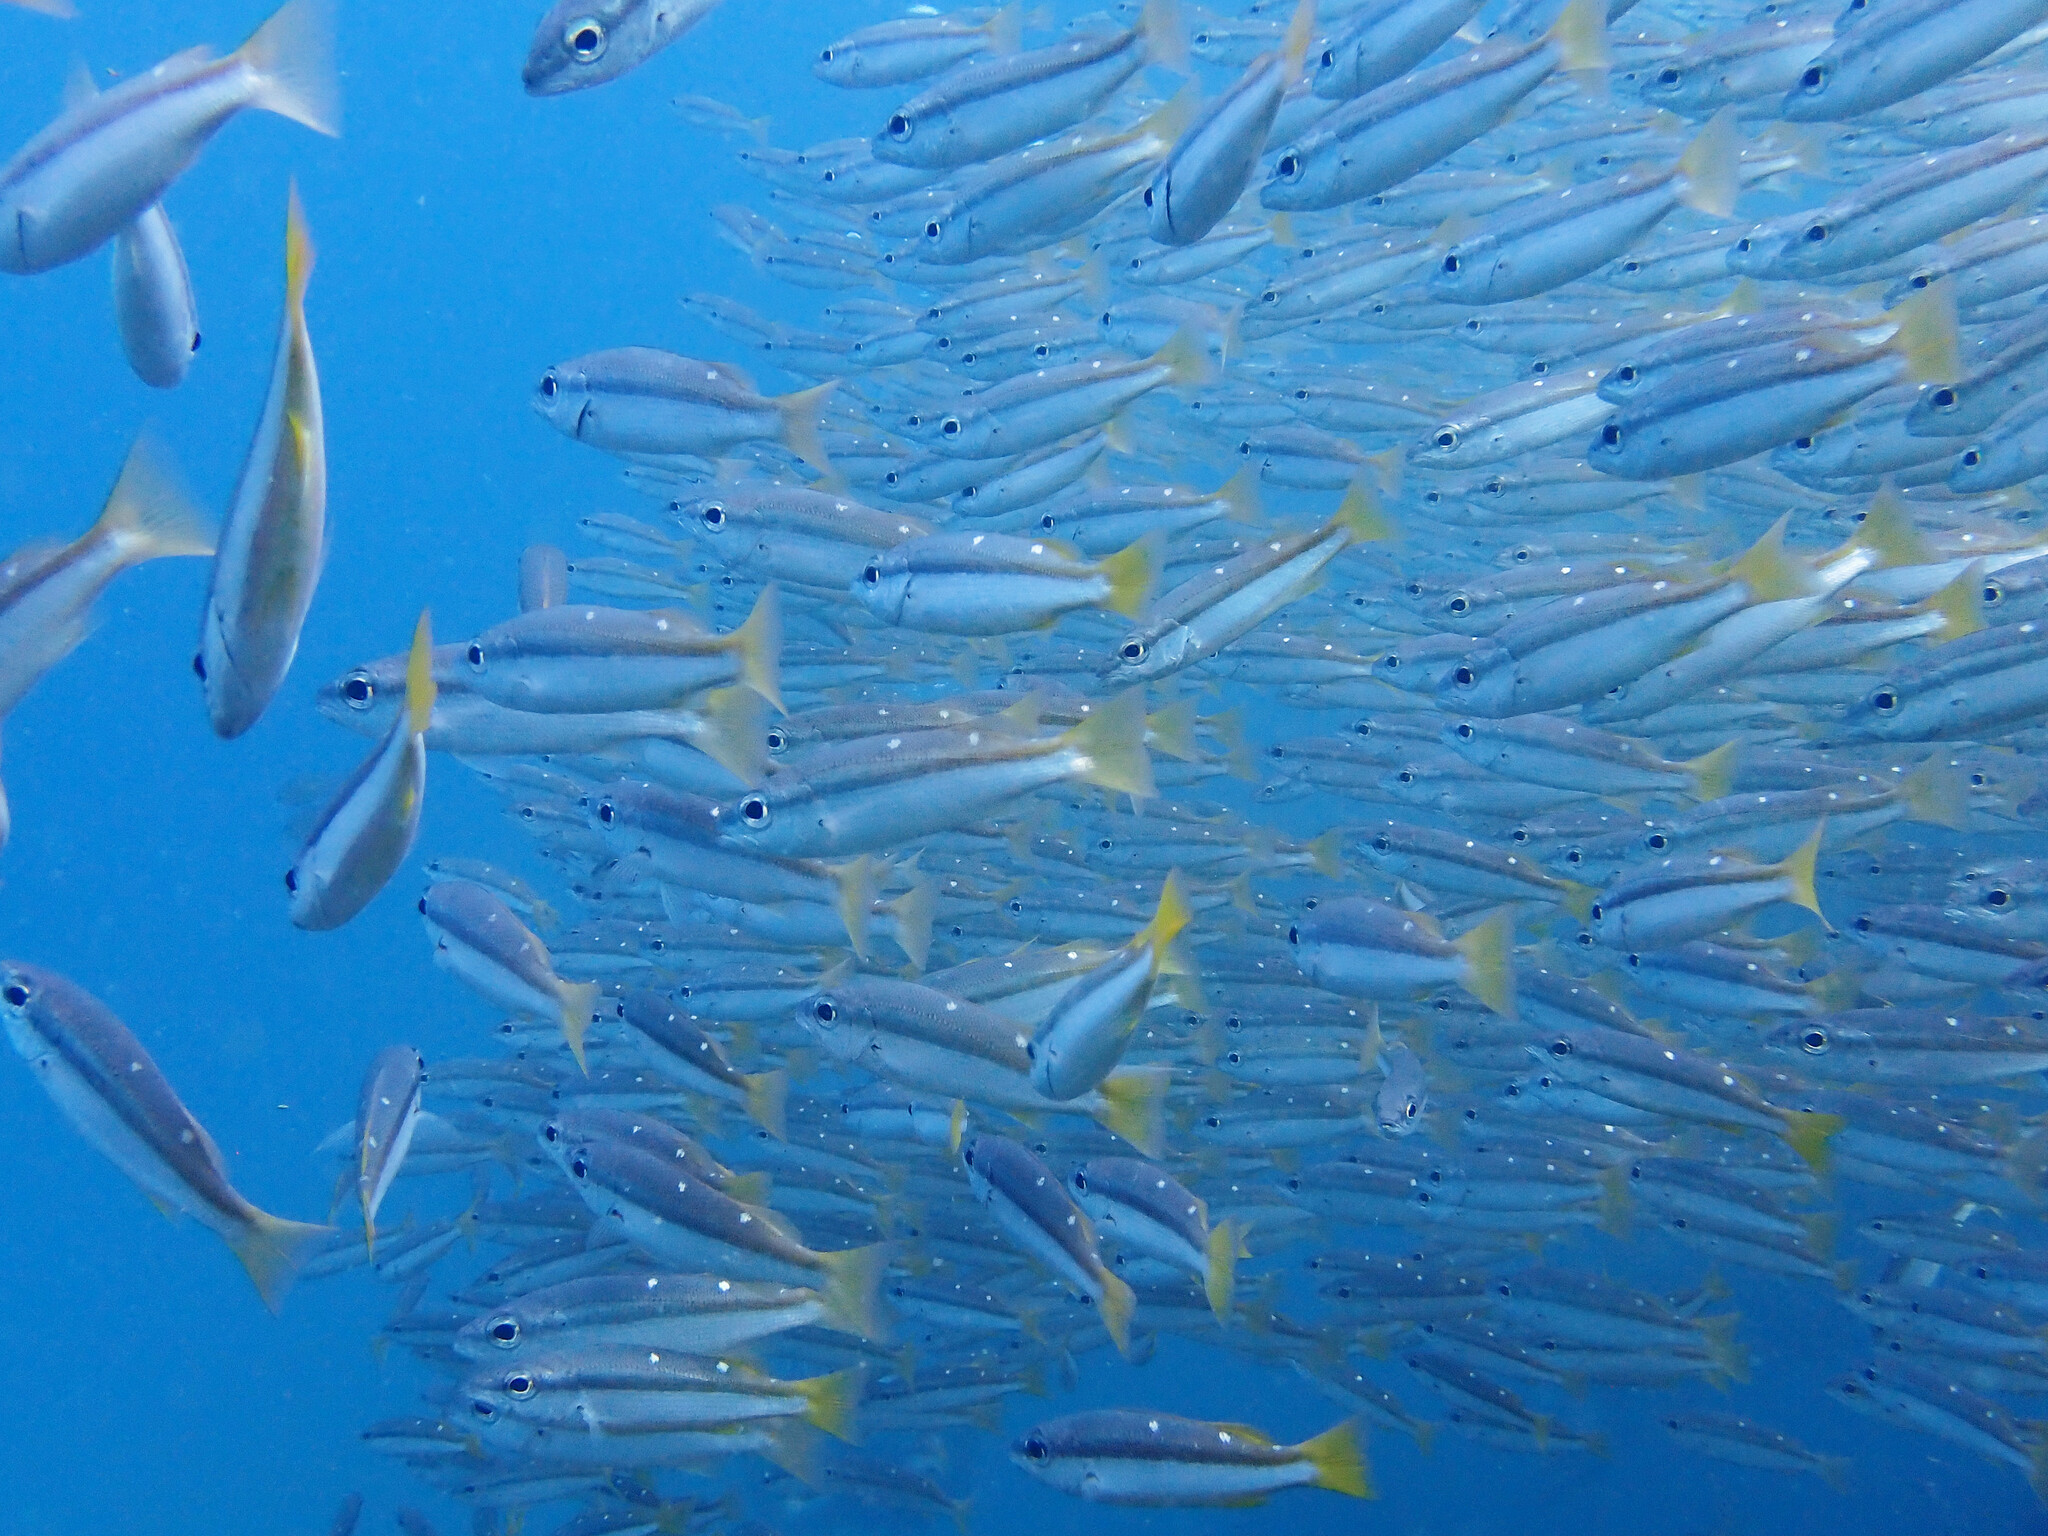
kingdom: Animalia
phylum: Chordata
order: Perciformes
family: Lutjanidae
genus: Lutjanus
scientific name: Lutjanus biguttatus
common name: Two-spot snapper
